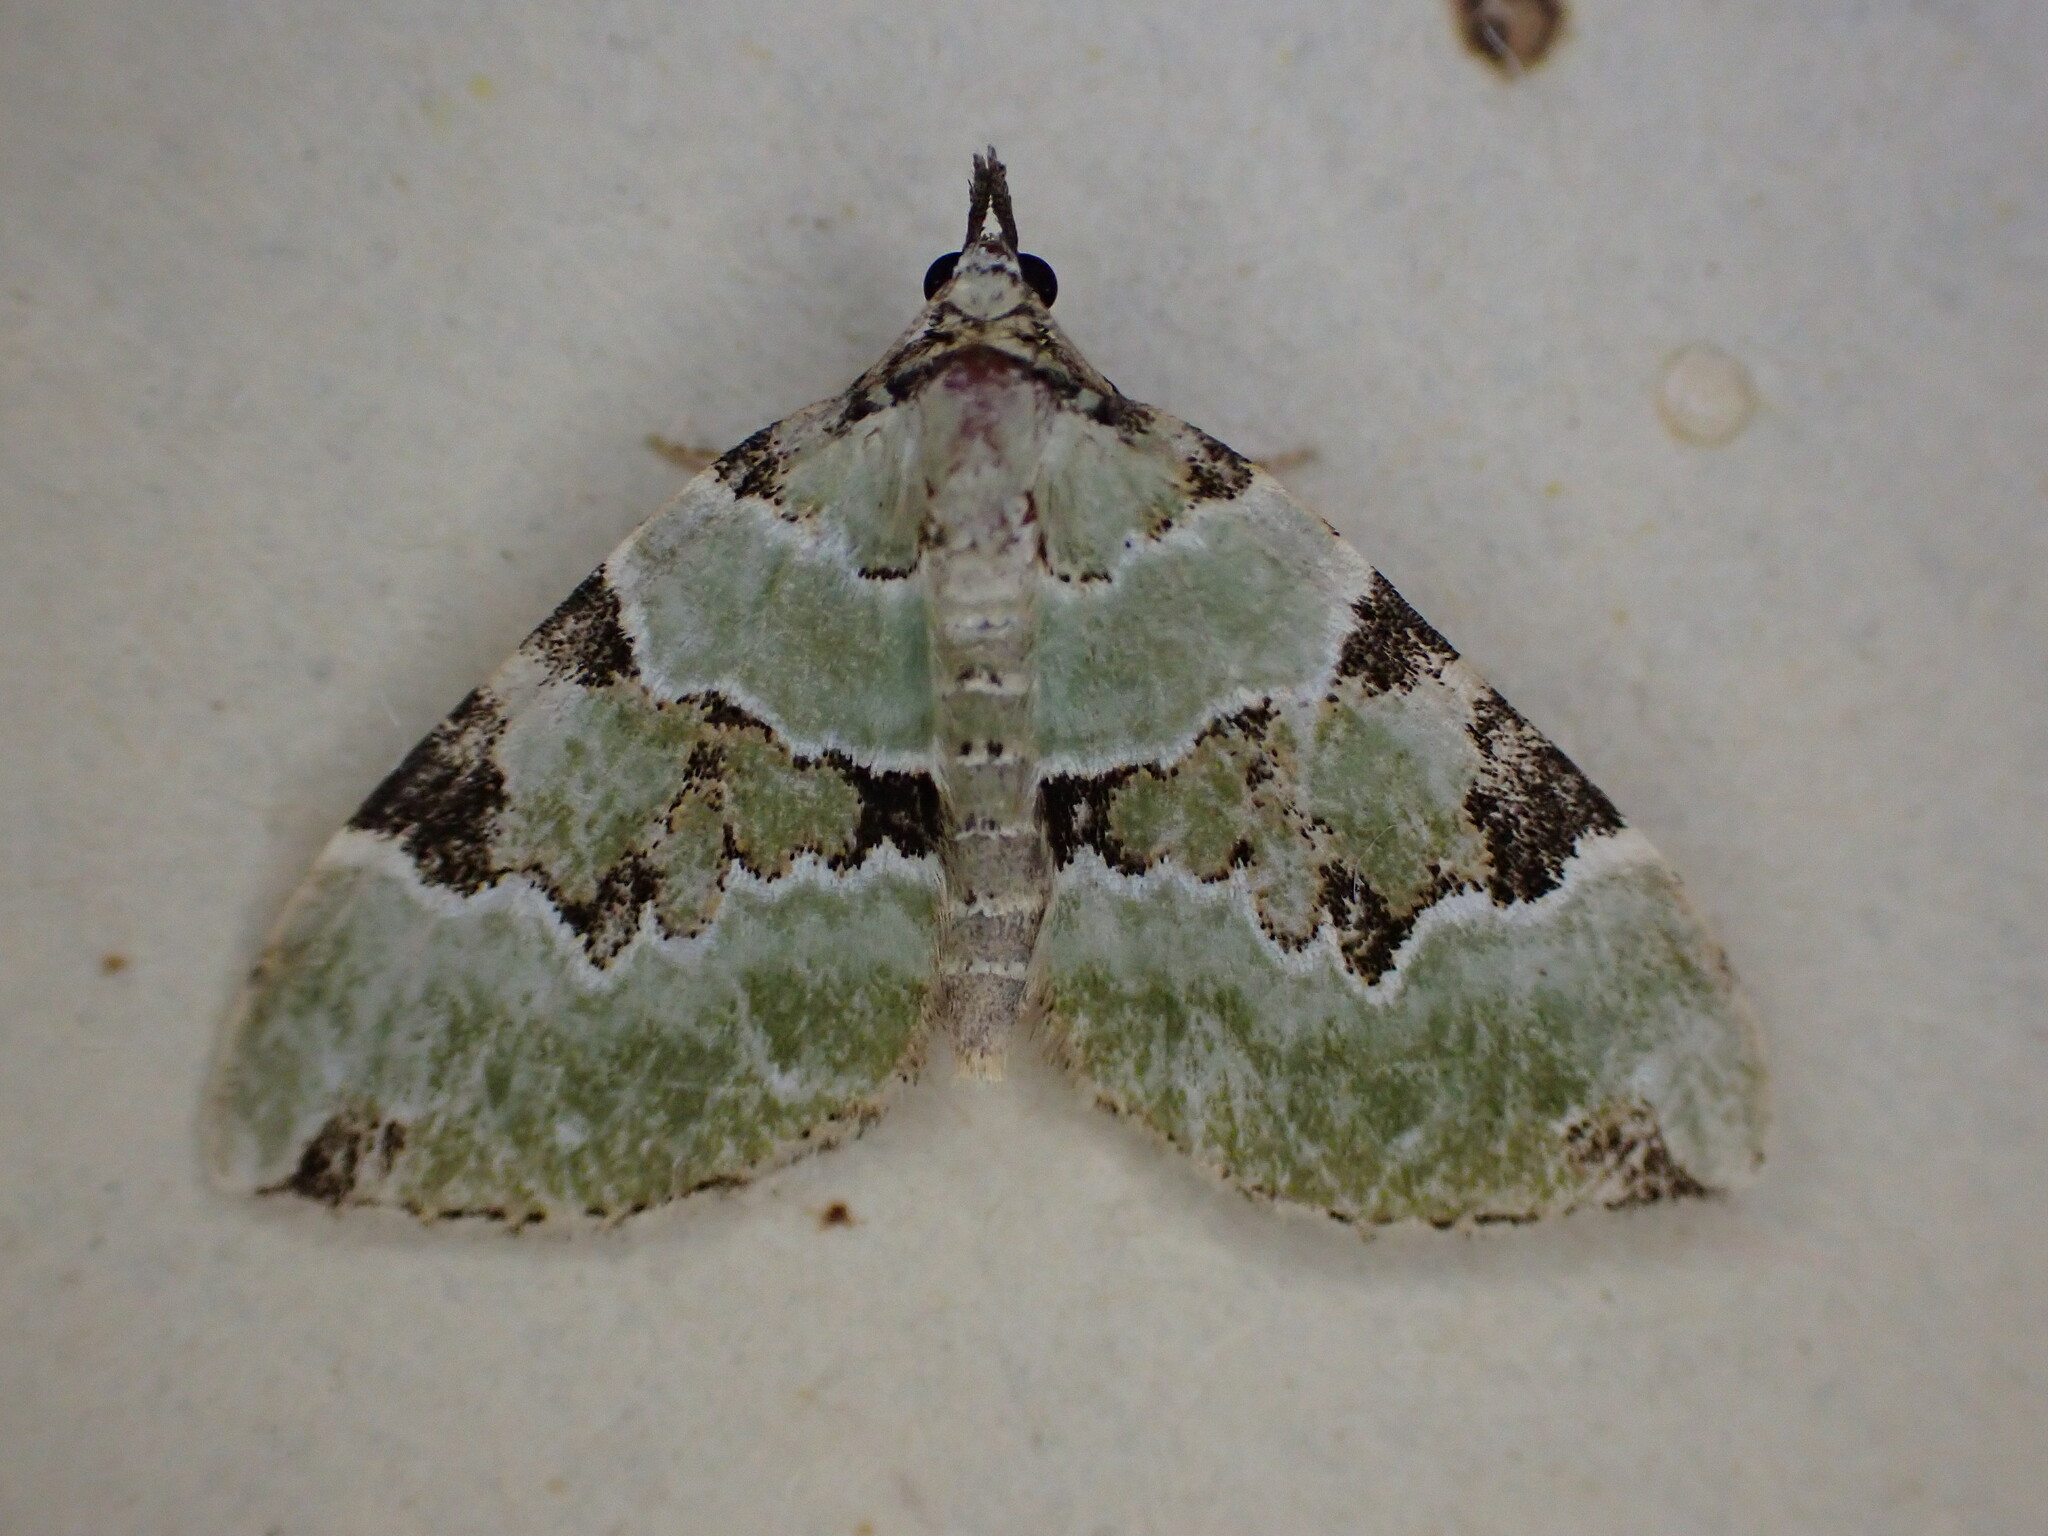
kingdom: Animalia
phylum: Arthropoda
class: Insecta
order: Lepidoptera
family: Geometridae
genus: Colostygia
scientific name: Colostygia pectinataria
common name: Green carpet
